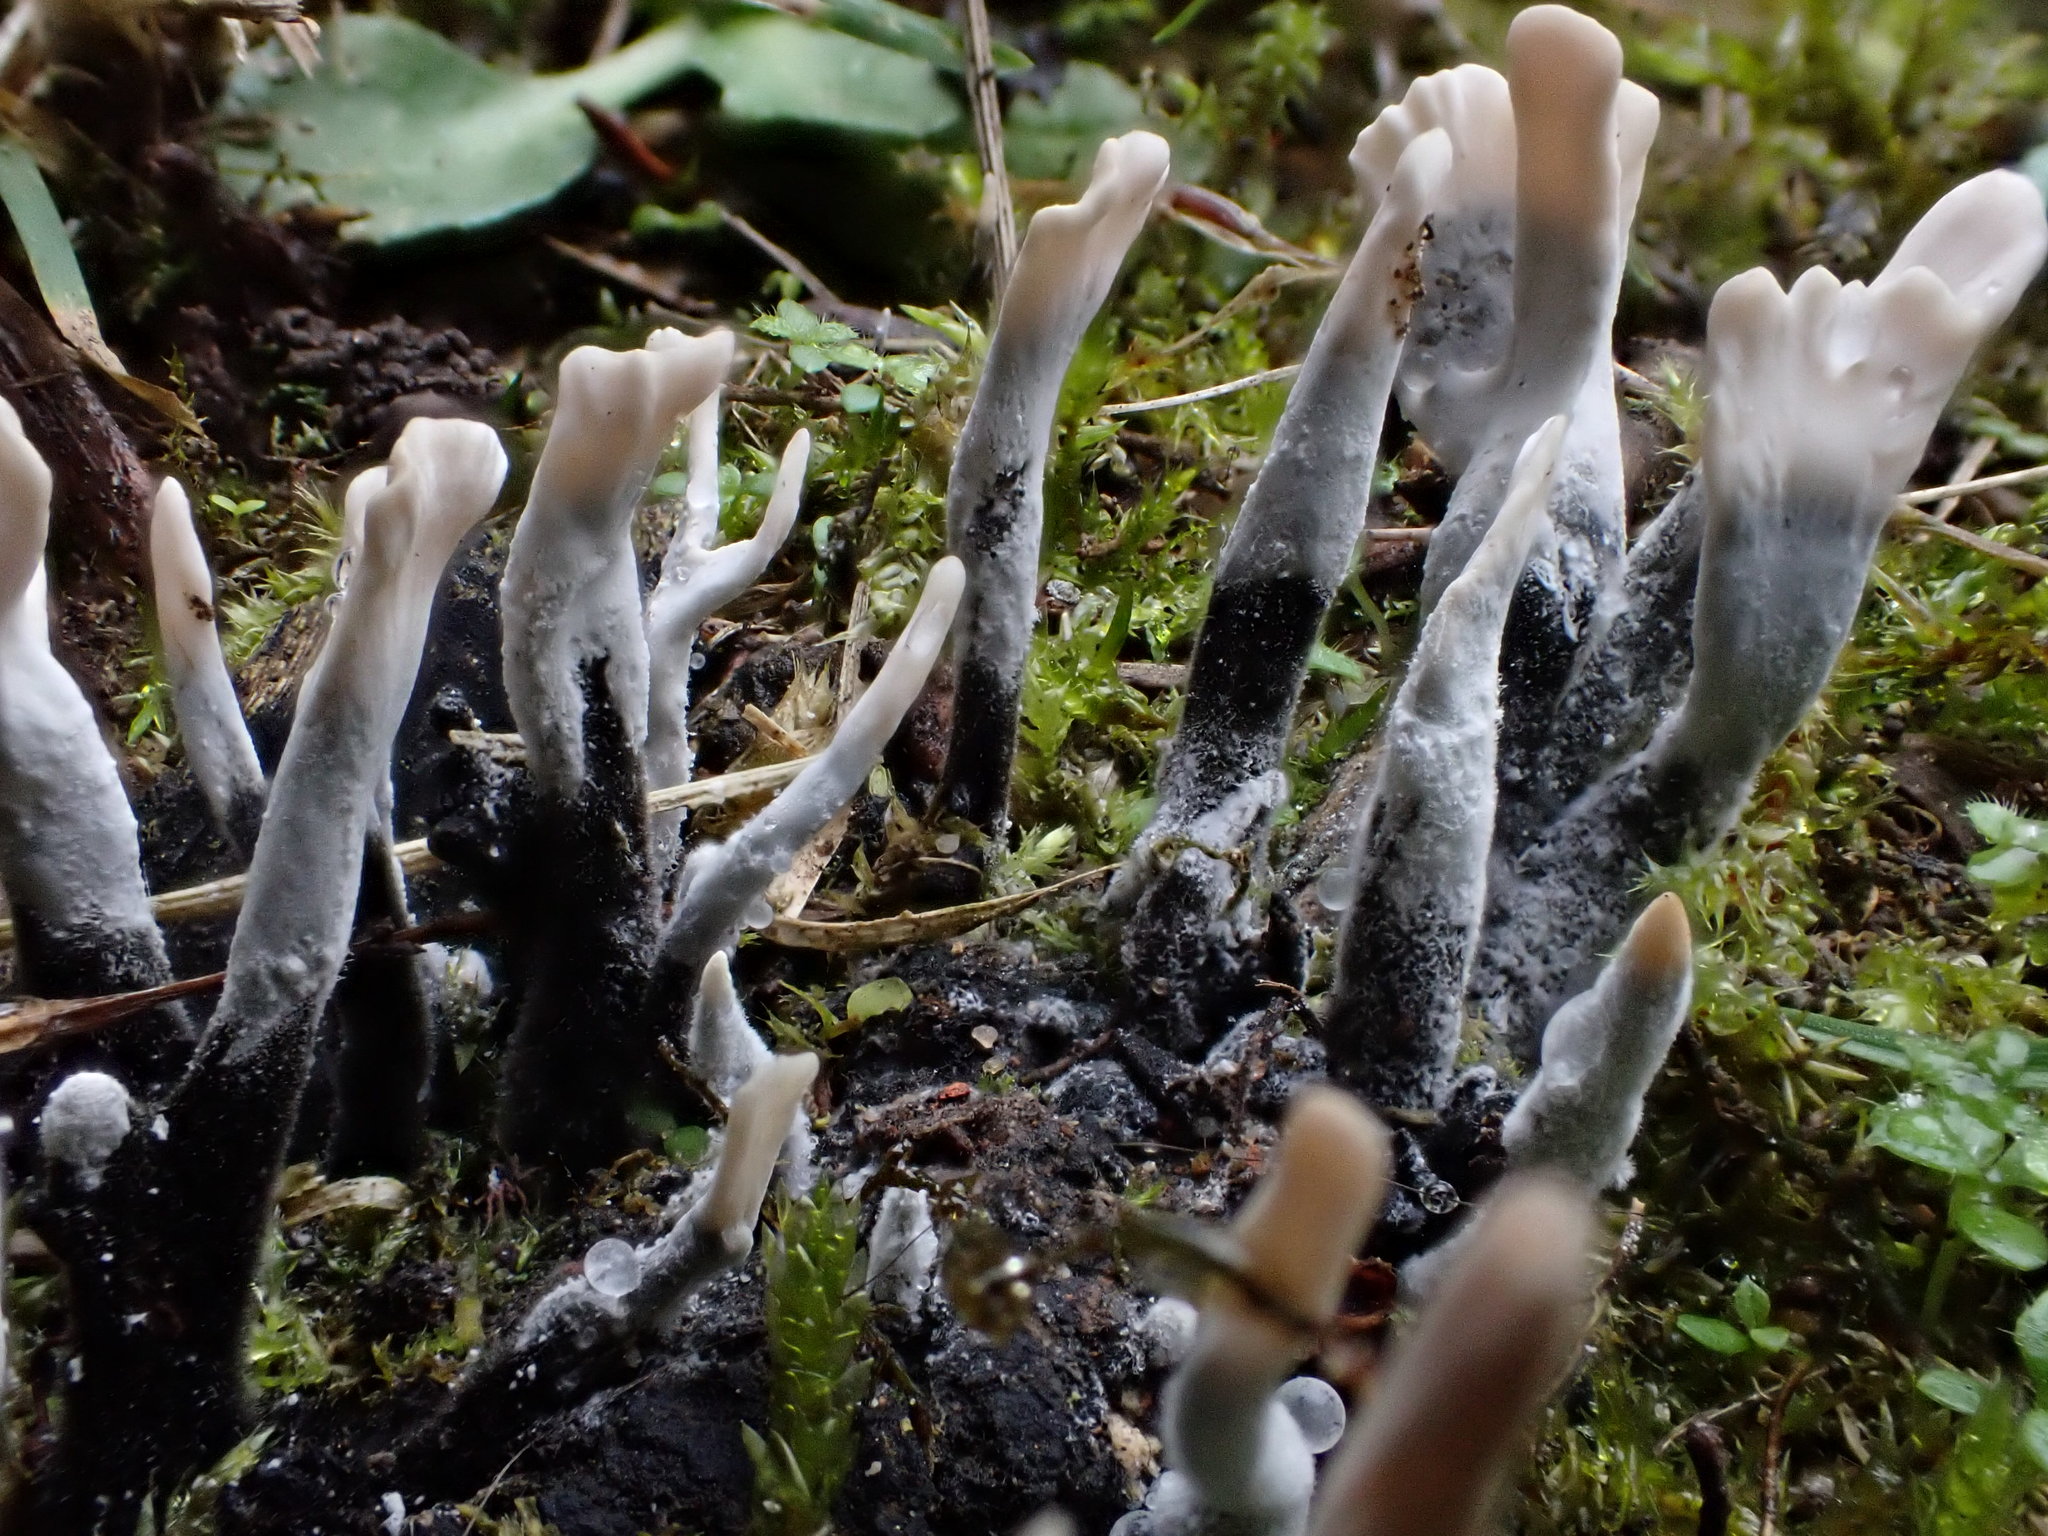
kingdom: Fungi
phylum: Ascomycota
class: Sordariomycetes
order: Xylariales
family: Xylariaceae
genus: Xylaria
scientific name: Xylaria hypoxylon
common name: Candle-snuff fungus
